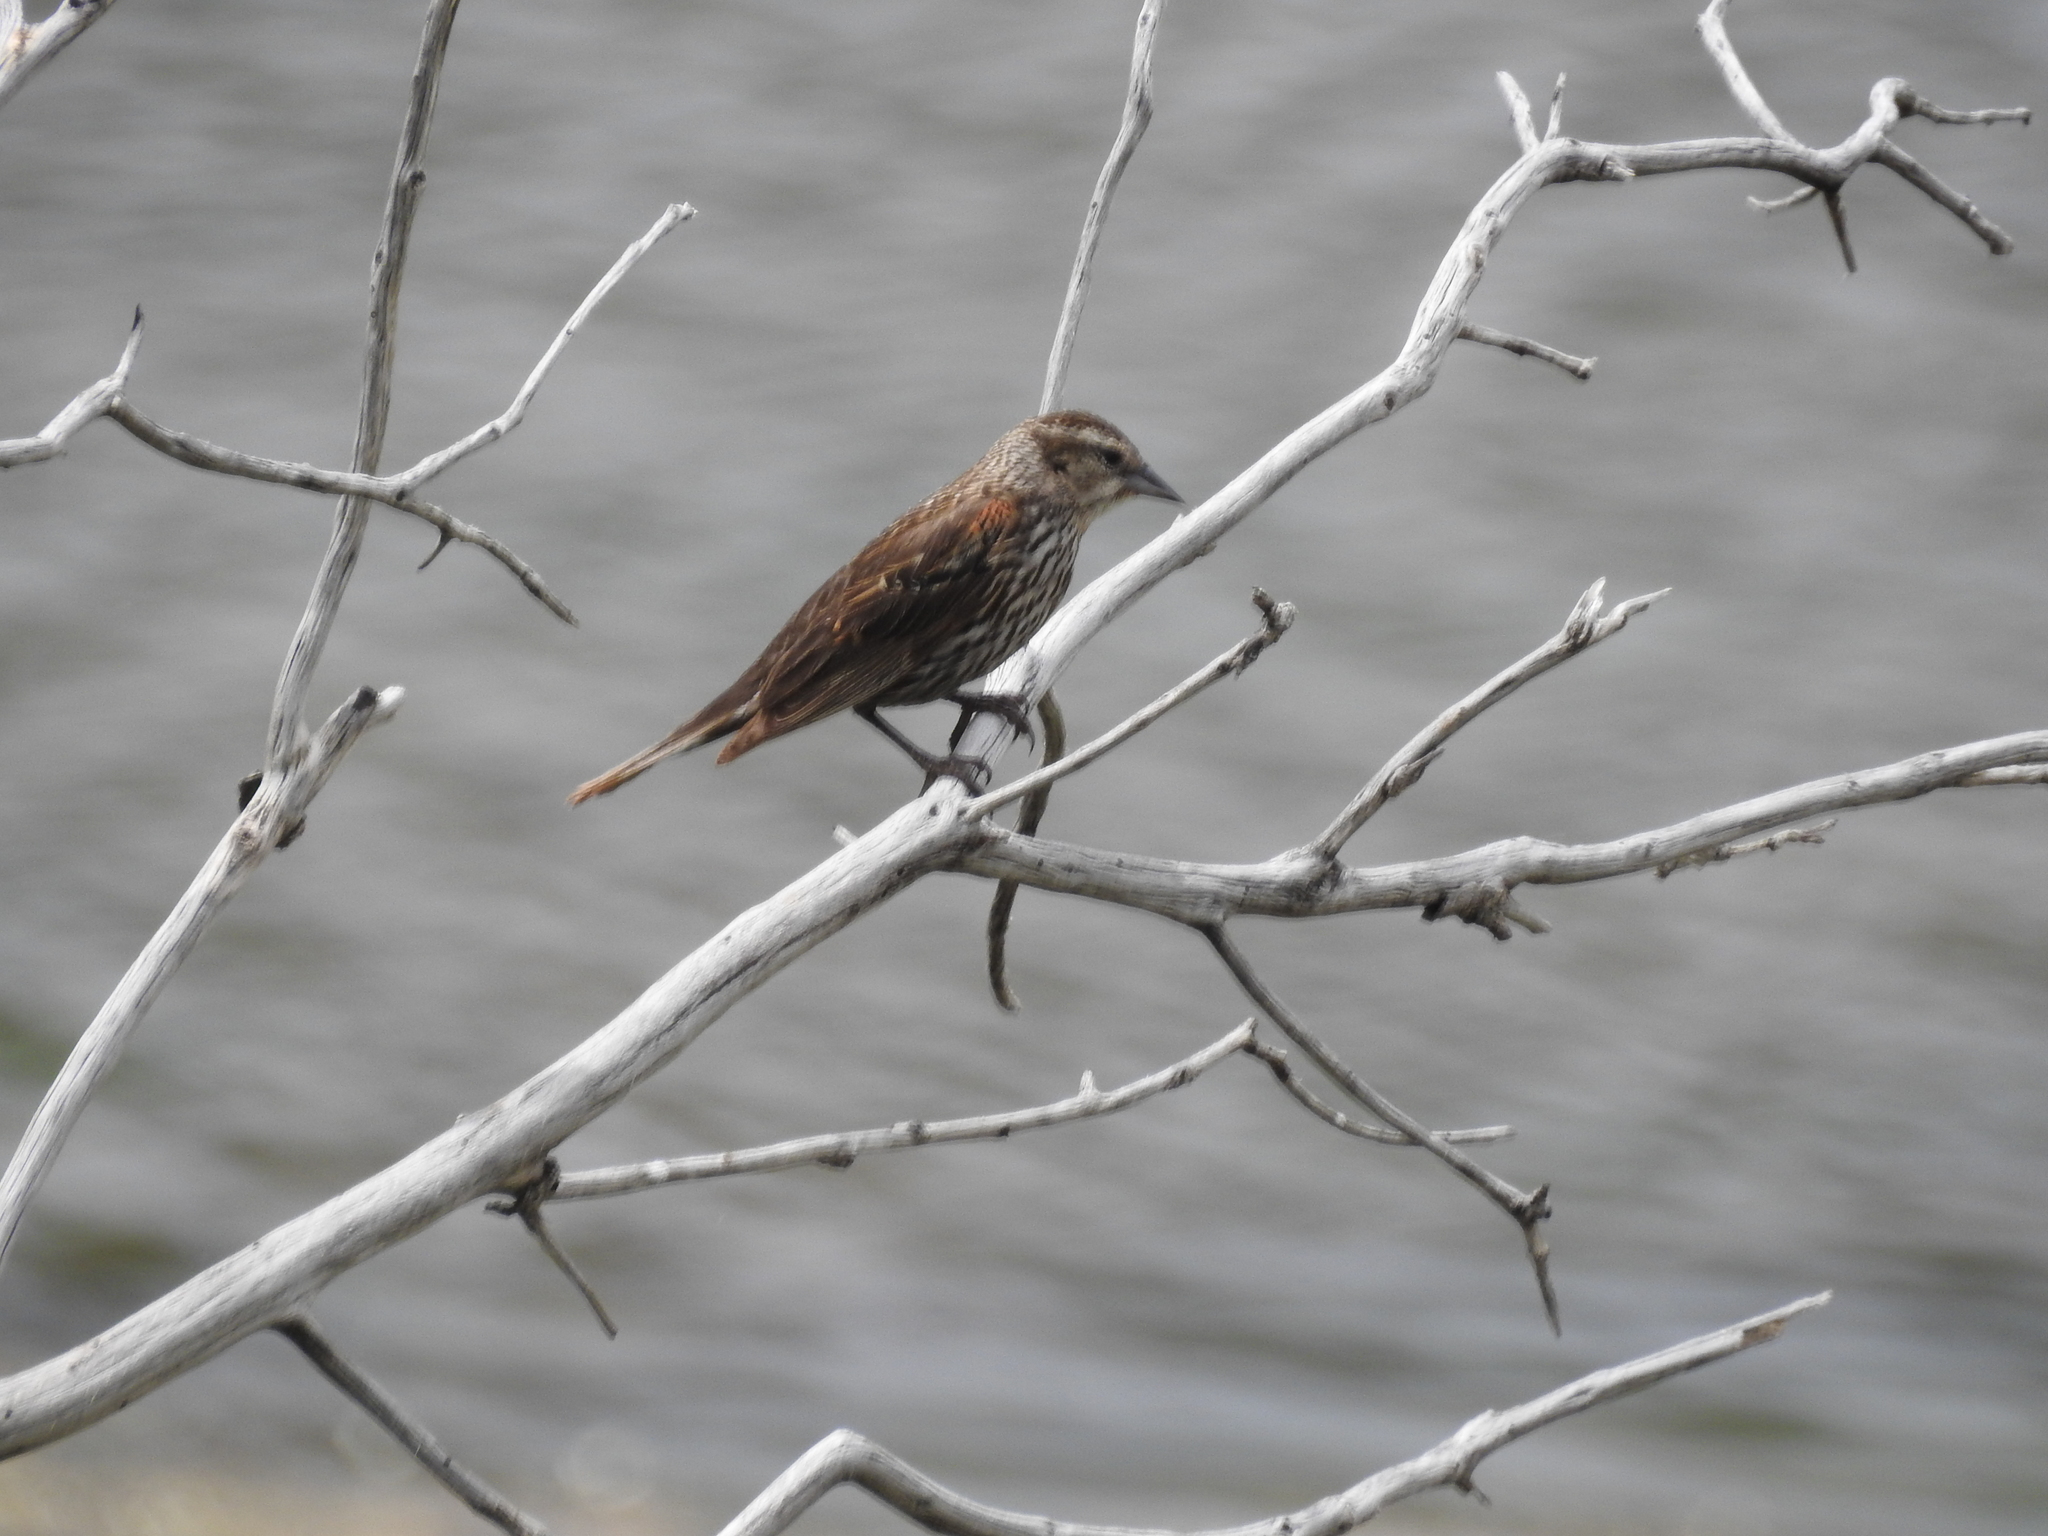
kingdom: Animalia
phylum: Chordata
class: Aves
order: Passeriformes
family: Icteridae
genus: Agelaius
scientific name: Agelaius phoeniceus
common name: Red-winged blackbird
